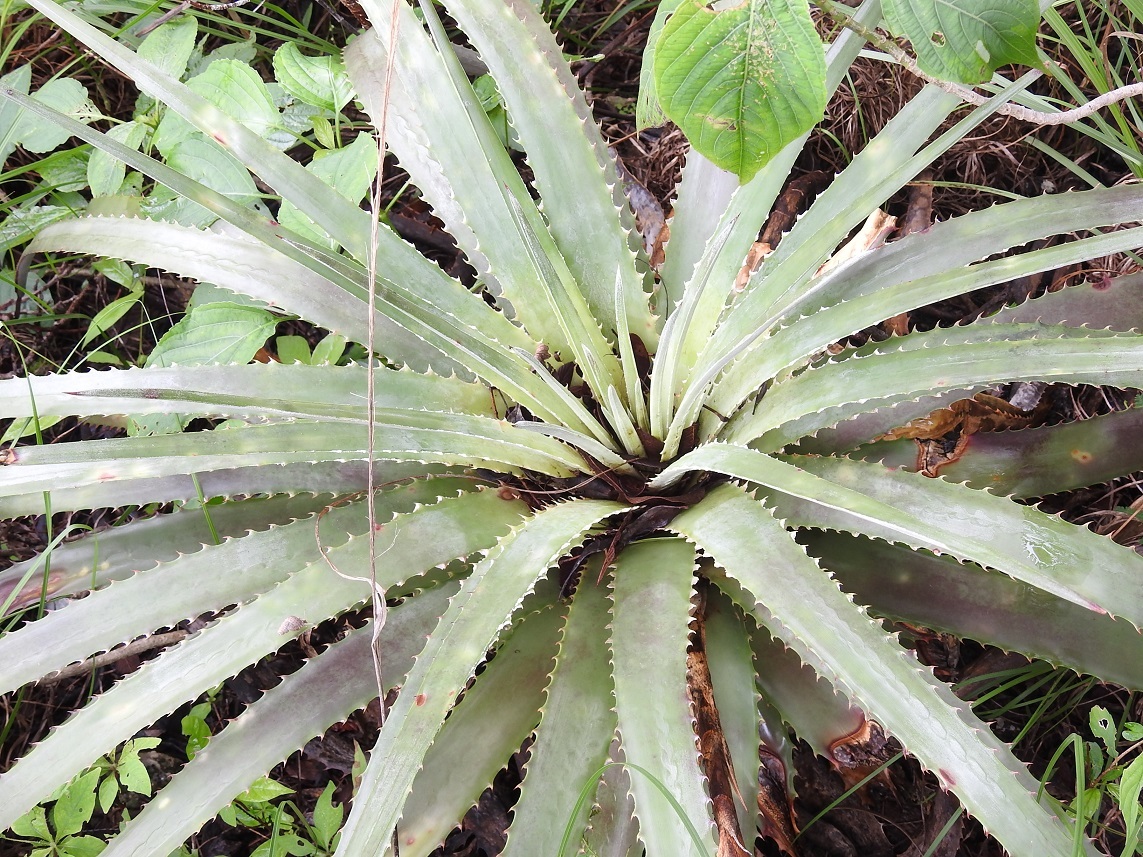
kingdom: Plantae
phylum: Tracheophyta
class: Liliopsida
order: Poales
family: Bromeliaceae
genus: Hechtia
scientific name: Hechtia glomerata
